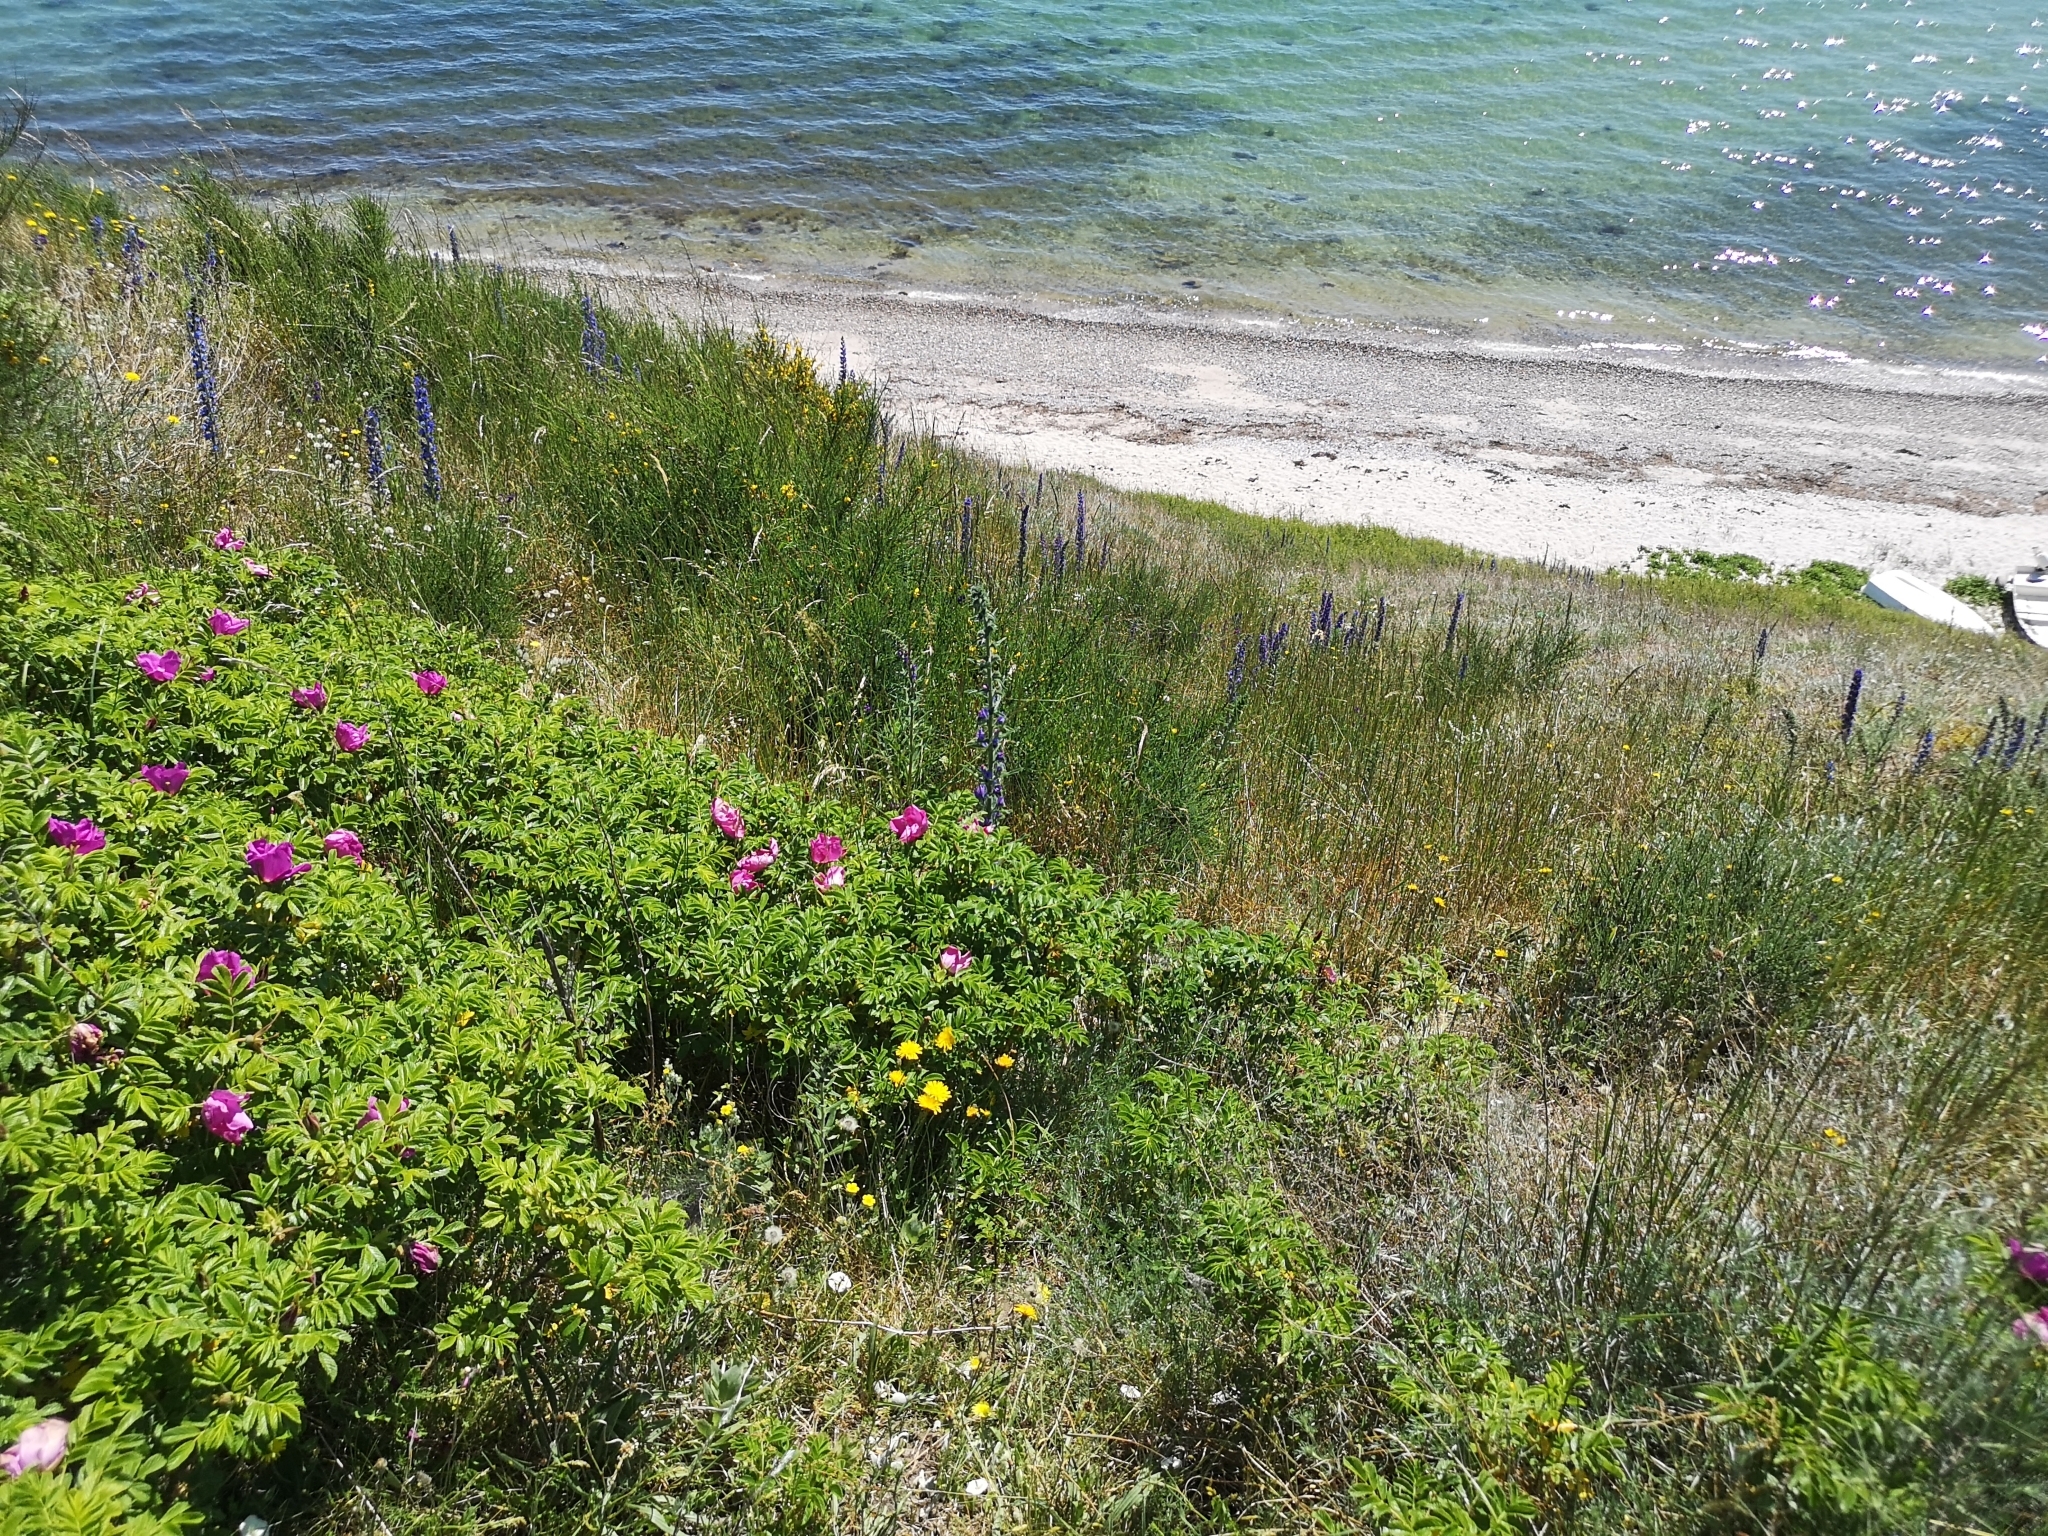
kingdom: Plantae
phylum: Tracheophyta
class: Magnoliopsida
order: Rosales
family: Rosaceae
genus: Rosa
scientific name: Rosa rugosa
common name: Japanese rose
